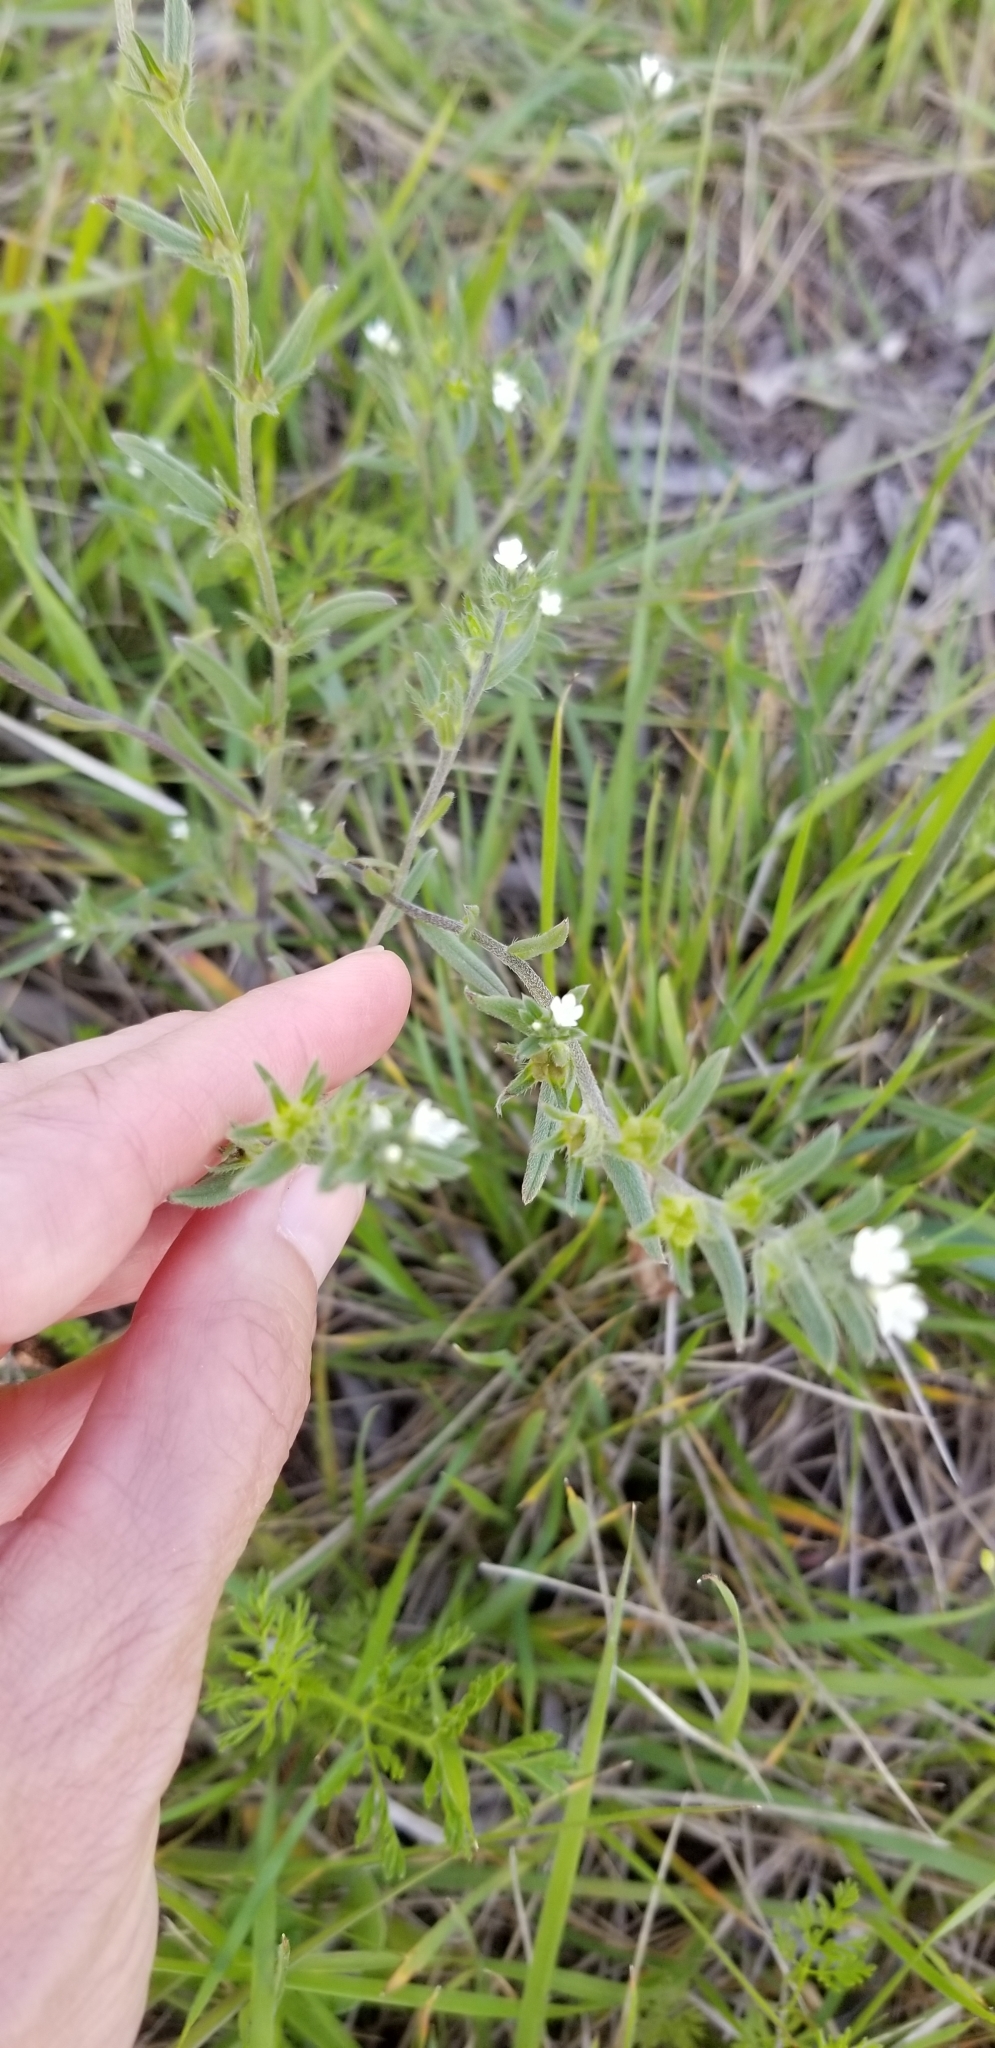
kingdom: Plantae
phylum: Tracheophyta
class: Magnoliopsida
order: Boraginales
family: Boraginaceae
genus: Buglossoides
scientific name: Buglossoides arvensis
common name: Corn gromwell
